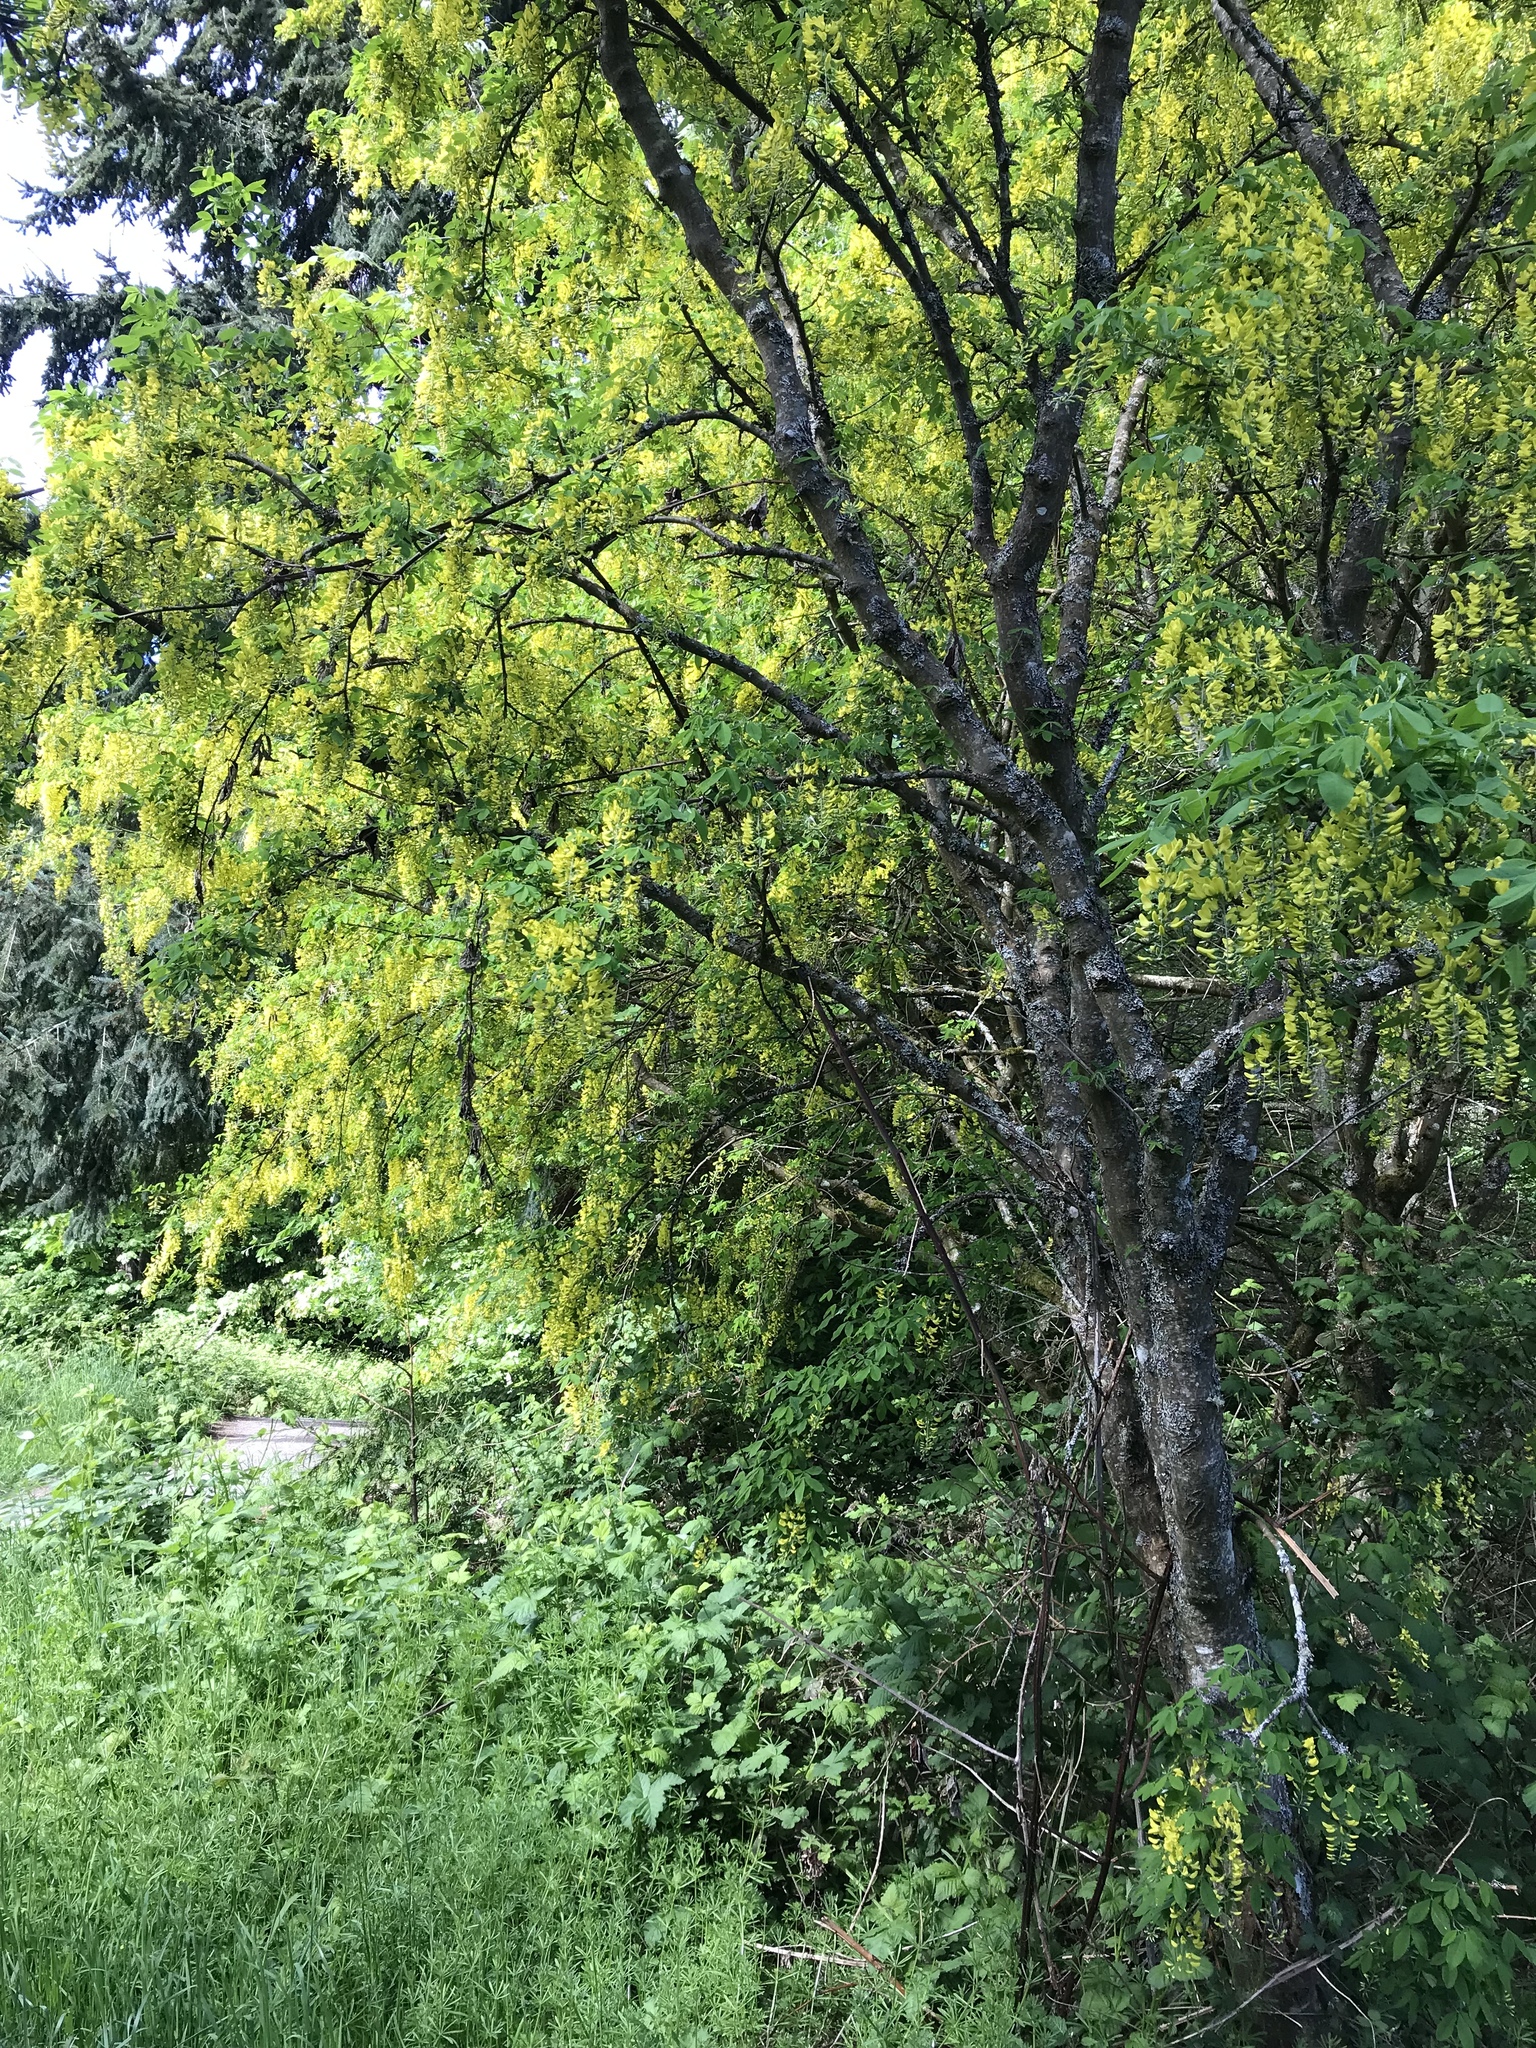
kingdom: Plantae
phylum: Tracheophyta
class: Magnoliopsida
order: Fabales
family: Fabaceae
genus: Laburnum
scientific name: Laburnum anagyroides
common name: Laburnum
